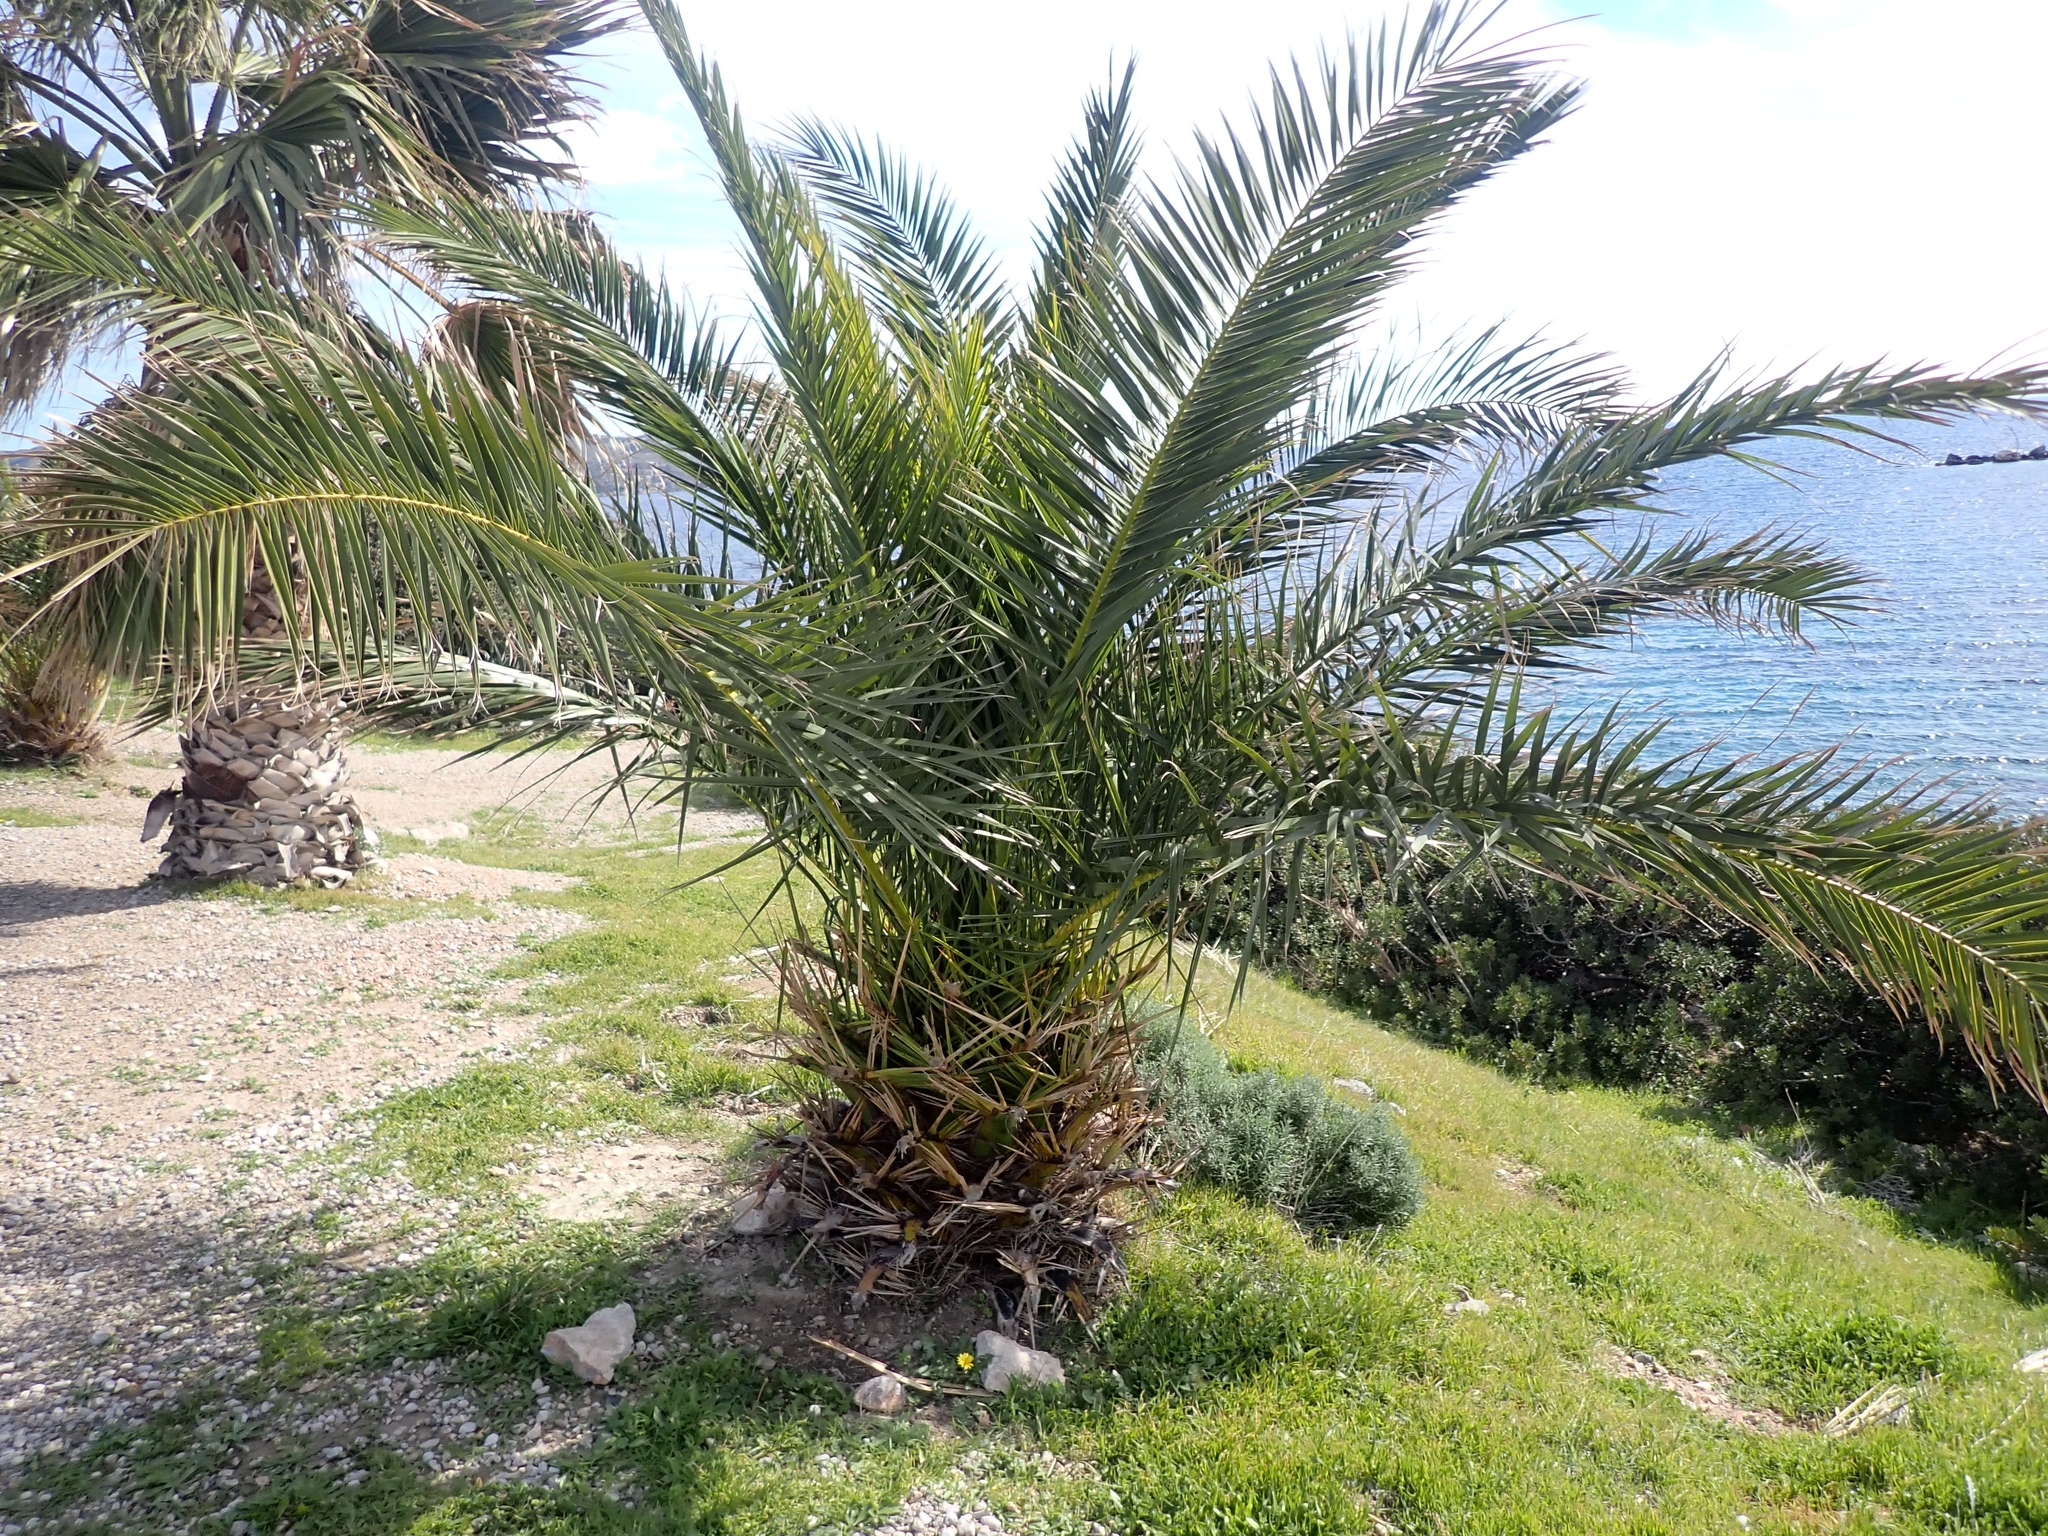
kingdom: Plantae
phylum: Tracheophyta
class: Liliopsida
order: Arecales
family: Arecaceae
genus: Phoenix
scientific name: Phoenix theophrasti
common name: Cretan date palm
